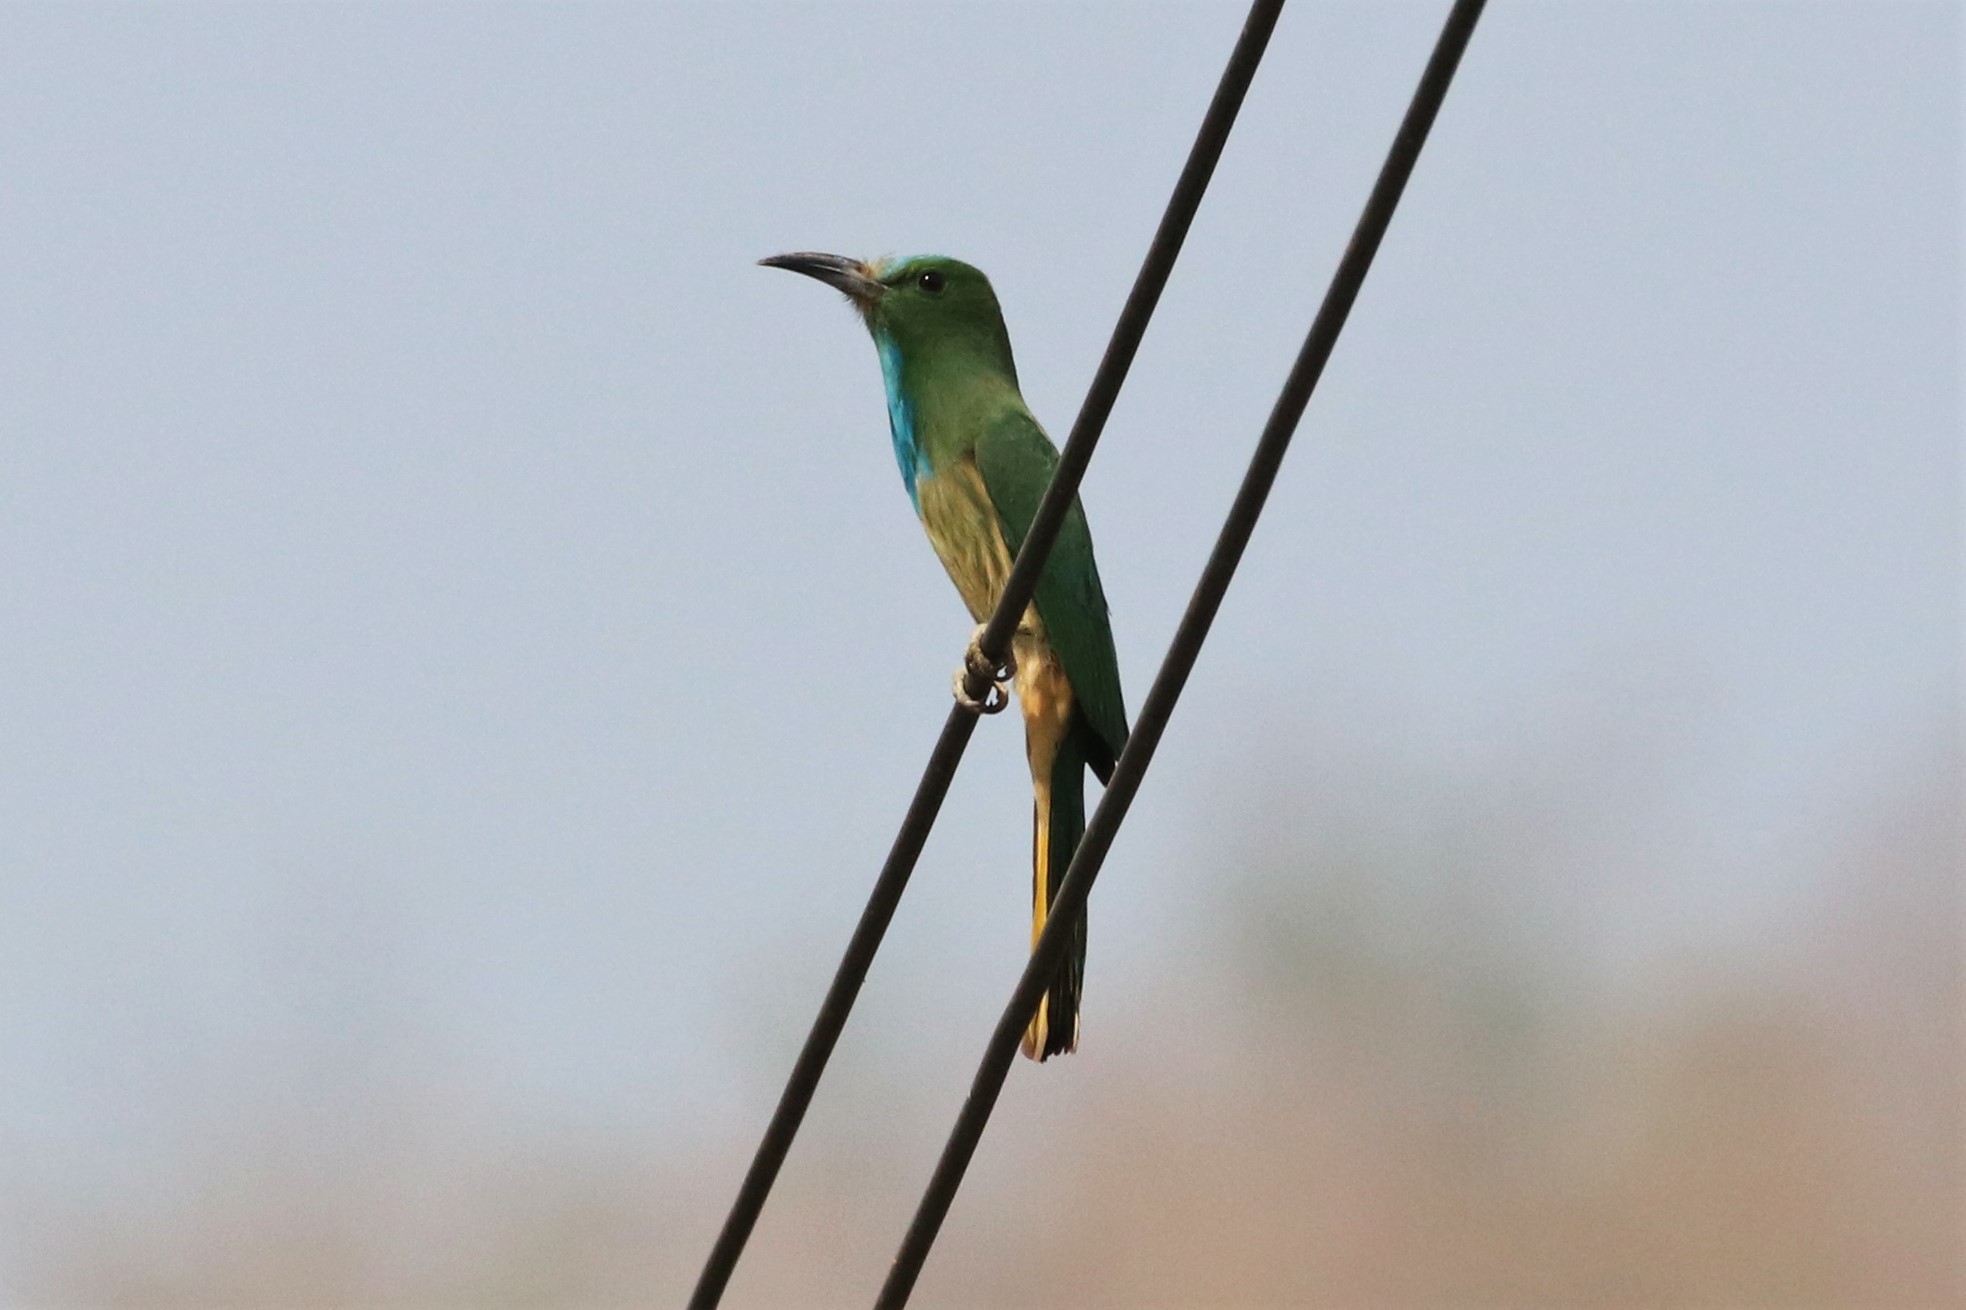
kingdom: Animalia
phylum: Chordata
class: Aves
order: Coraciiformes
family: Meropidae
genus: Nyctyornis
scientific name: Nyctyornis athertoni
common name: Blue-bearded bee-eater
